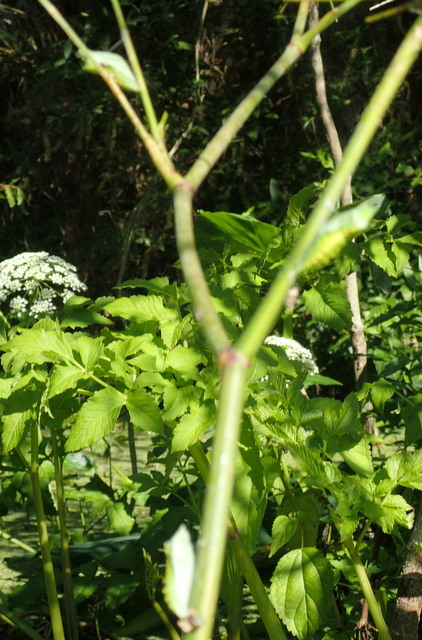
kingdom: Animalia
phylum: Arthropoda
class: Insecta
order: Lepidoptera
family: Papilionidae
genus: Papilio
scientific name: Papilio polyxenes
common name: Black swallowtail
